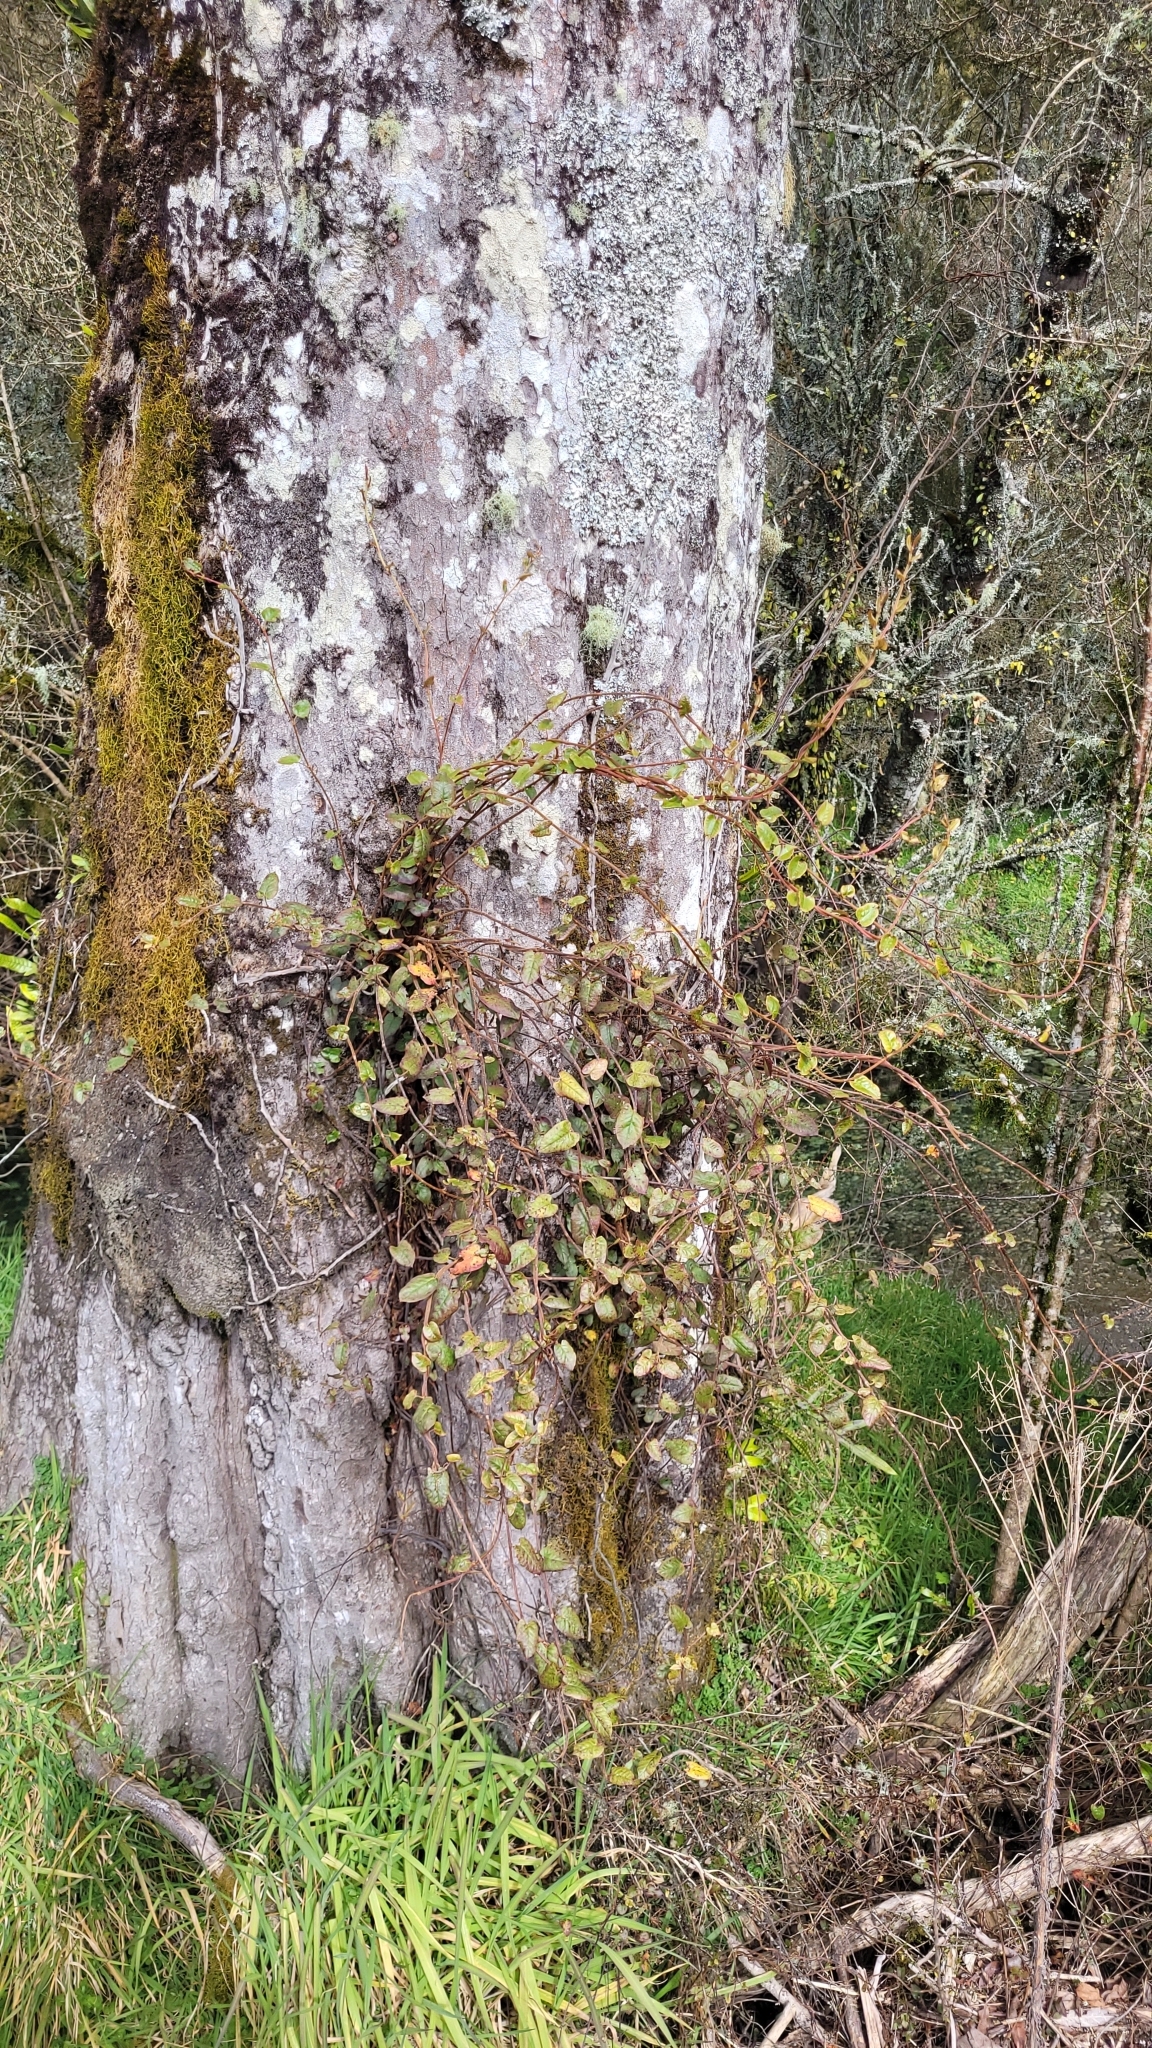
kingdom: Plantae
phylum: Tracheophyta
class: Magnoliopsida
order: Caryophyllales
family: Polygonaceae
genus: Muehlenbeckia
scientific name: Muehlenbeckia australis
